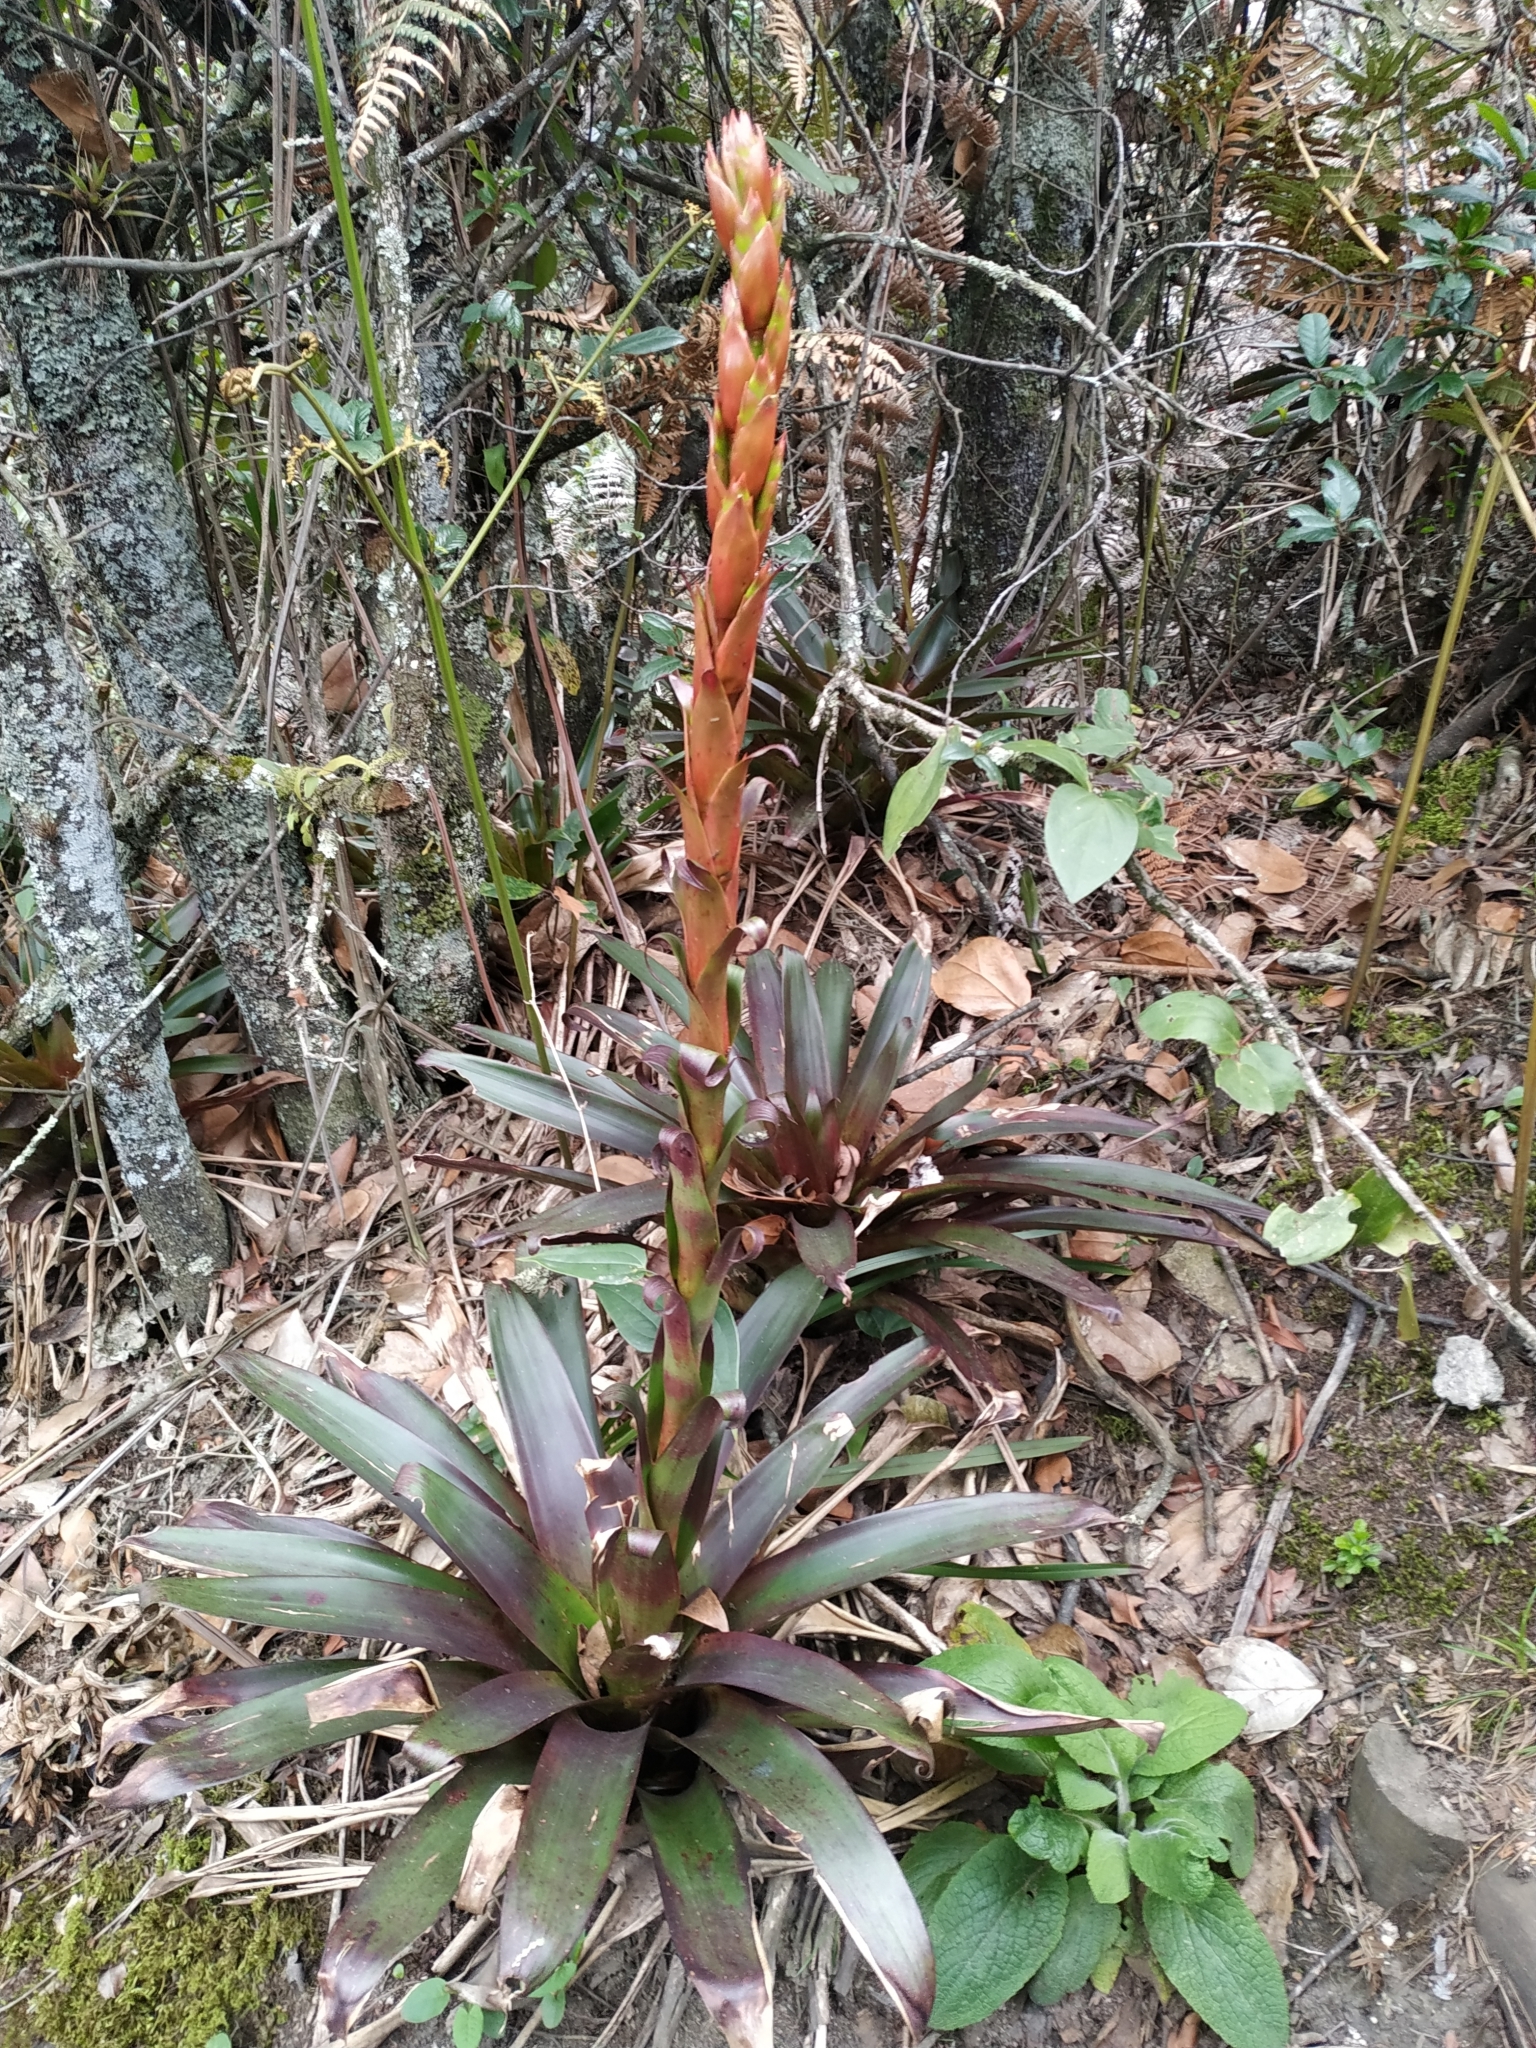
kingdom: Plantae
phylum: Tracheophyta
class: Liliopsida
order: Poales
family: Bromeliaceae
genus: Tillandsia
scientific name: Tillandsia pastensis
